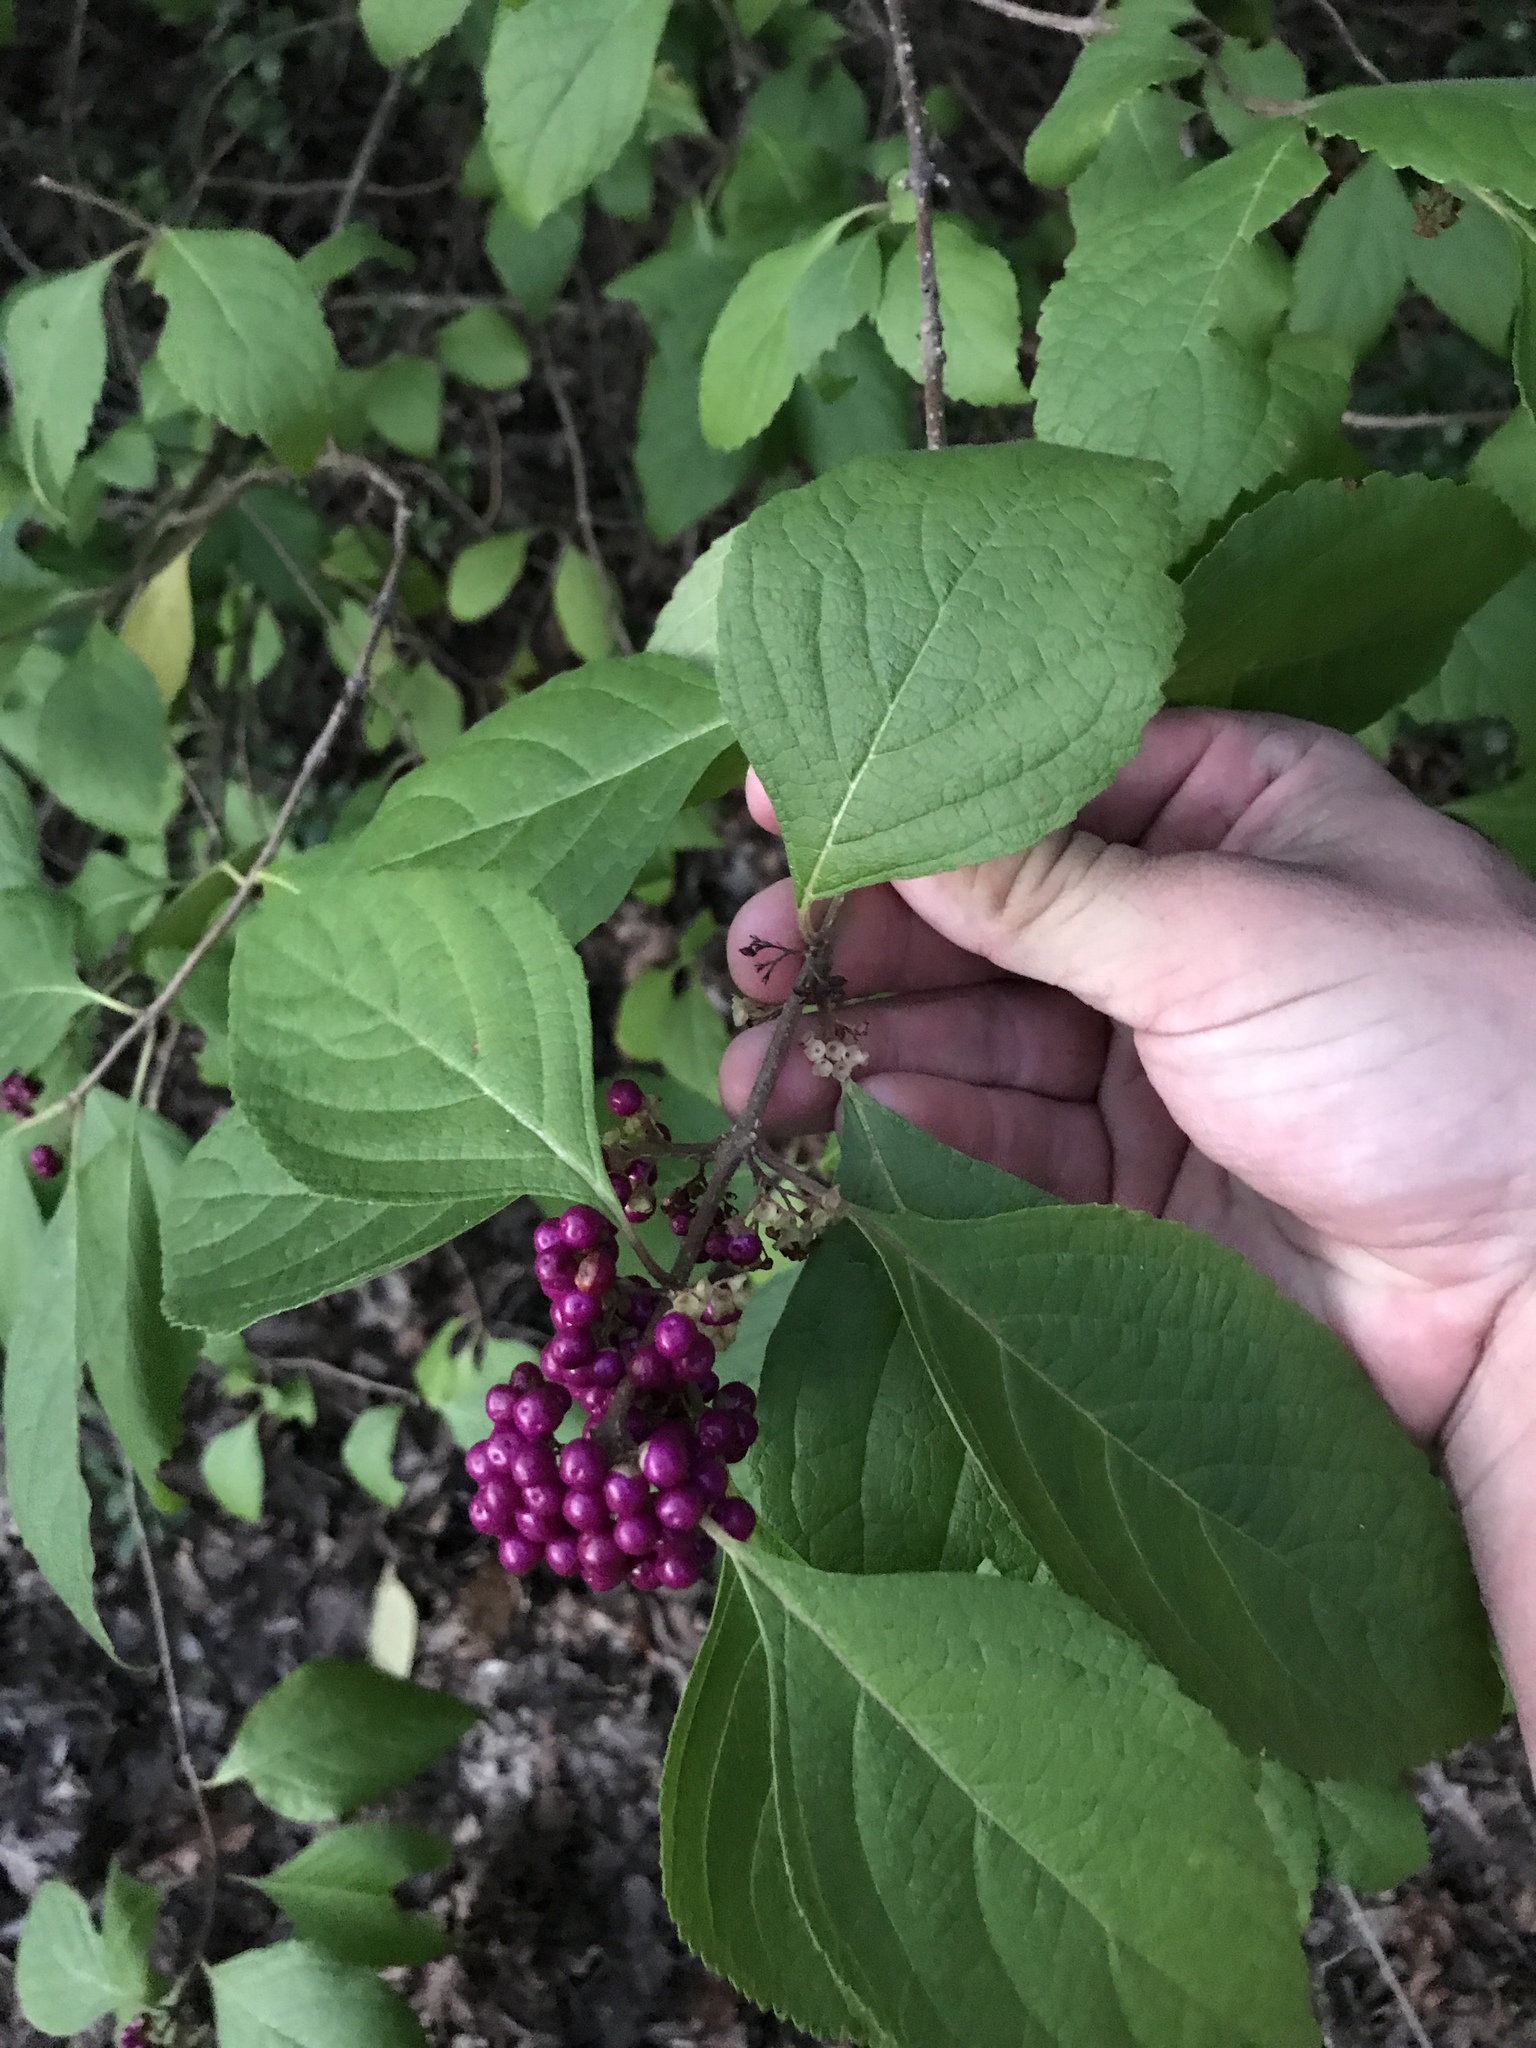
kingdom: Plantae
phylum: Tracheophyta
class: Magnoliopsida
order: Lamiales
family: Lamiaceae
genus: Callicarpa
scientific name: Callicarpa americana
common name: American beautyberry
